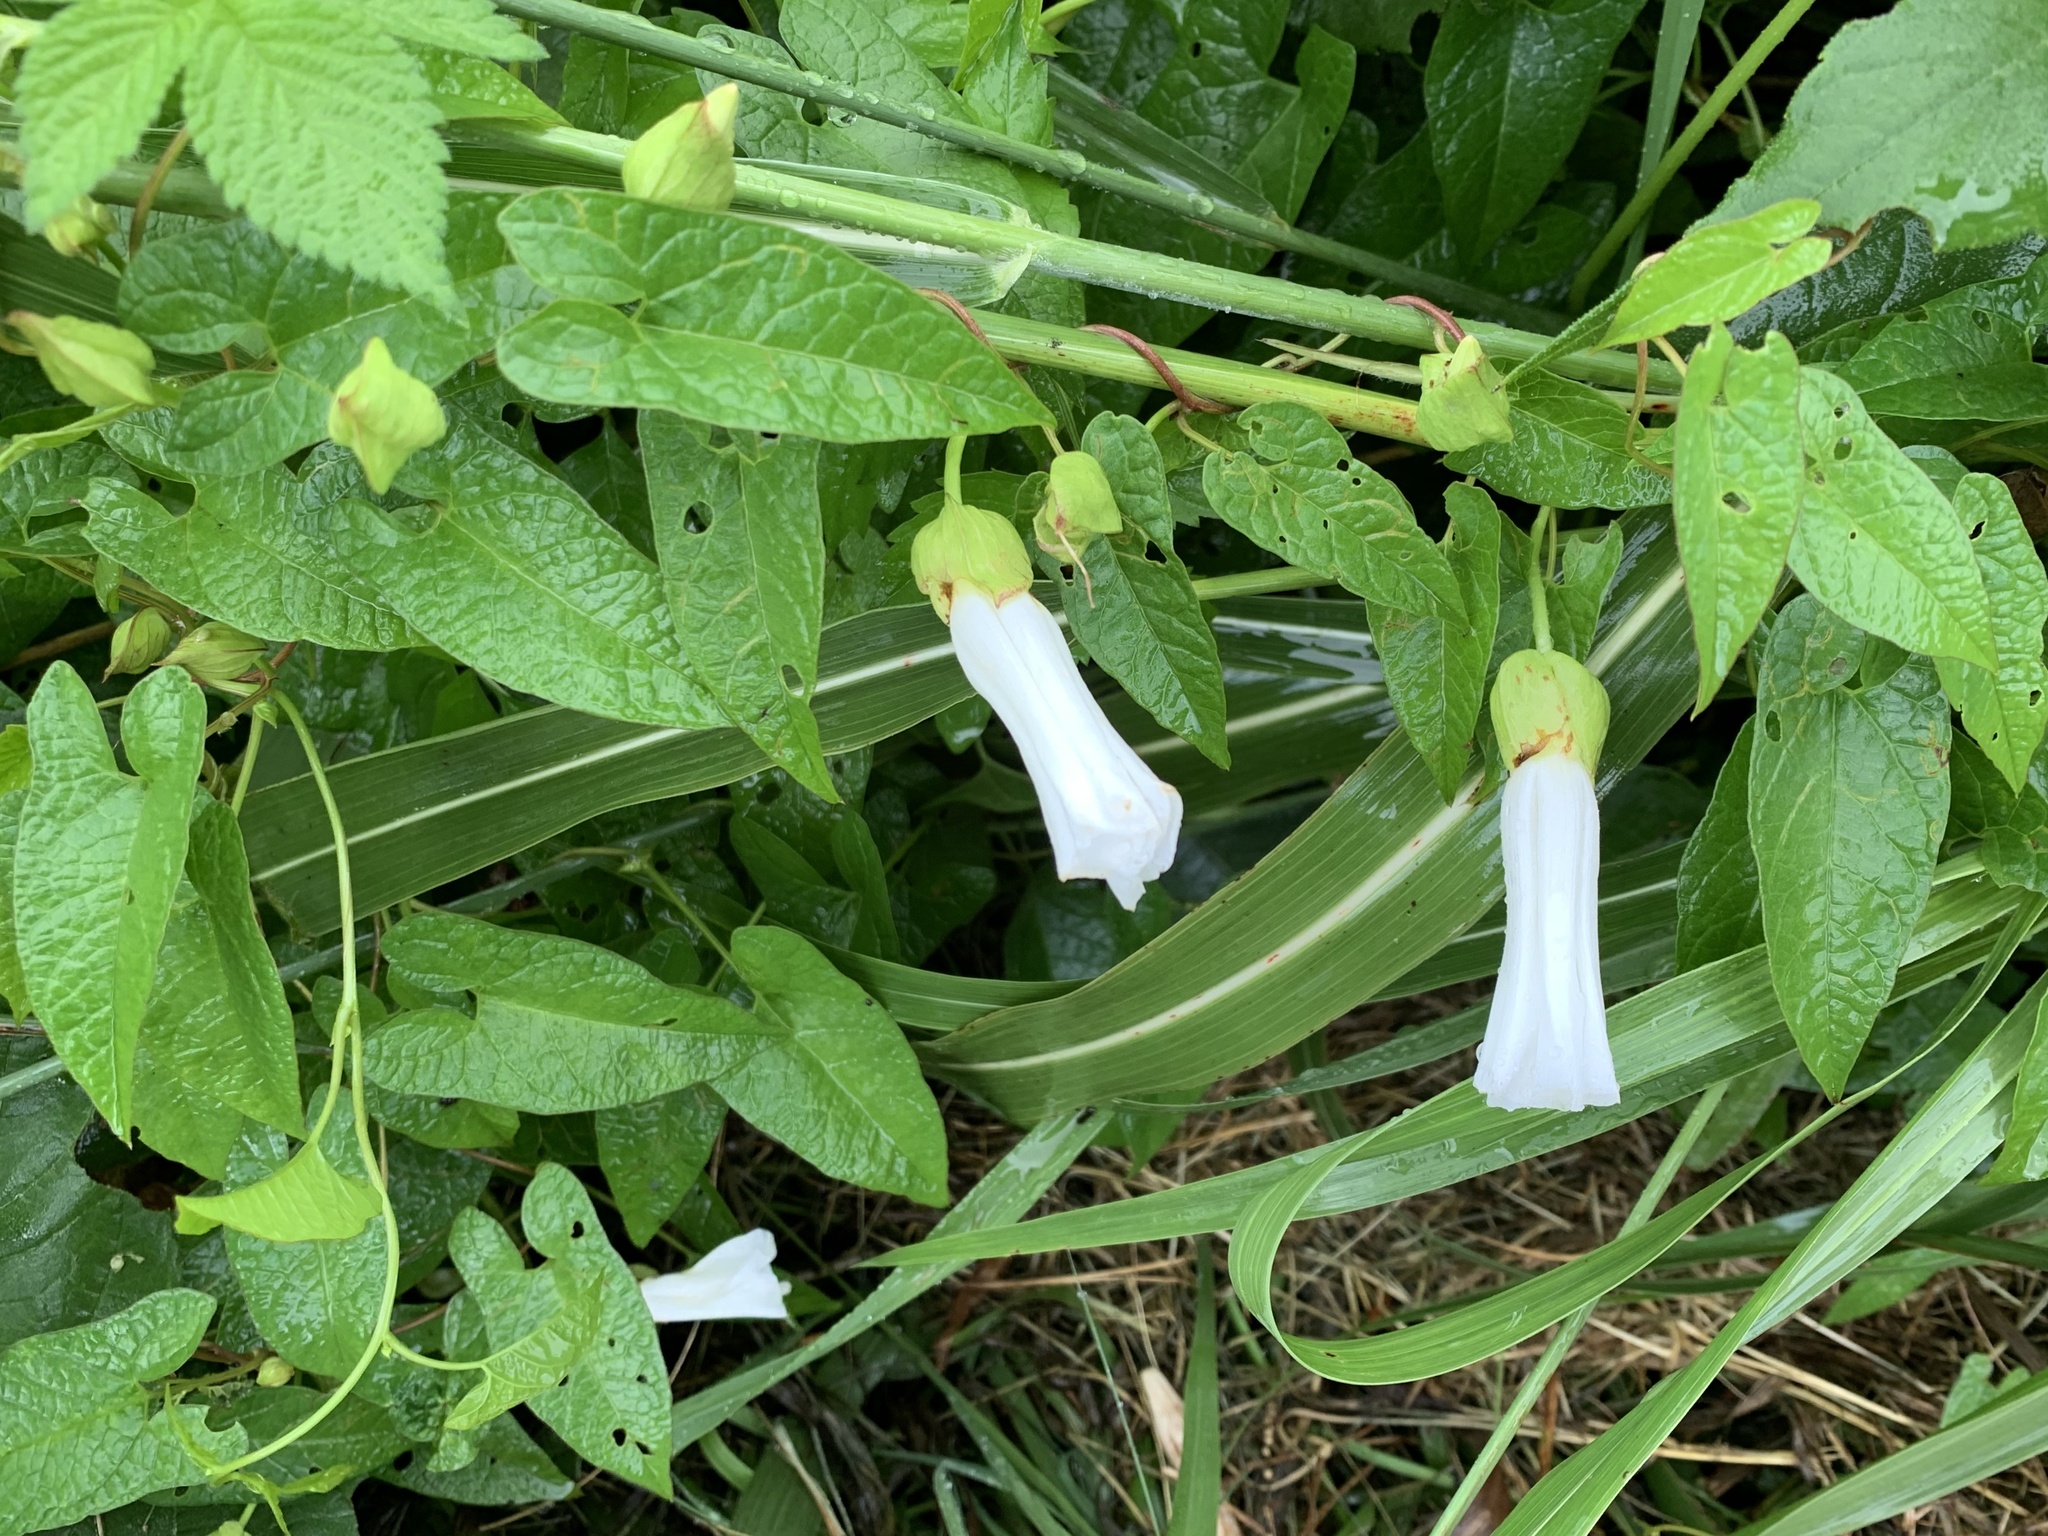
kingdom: Plantae
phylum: Tracheophyta
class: Magnoliopsida
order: Solanales
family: Convolvulaceae
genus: Calystegia
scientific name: Calystegia silvatica
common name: Large bindweed
